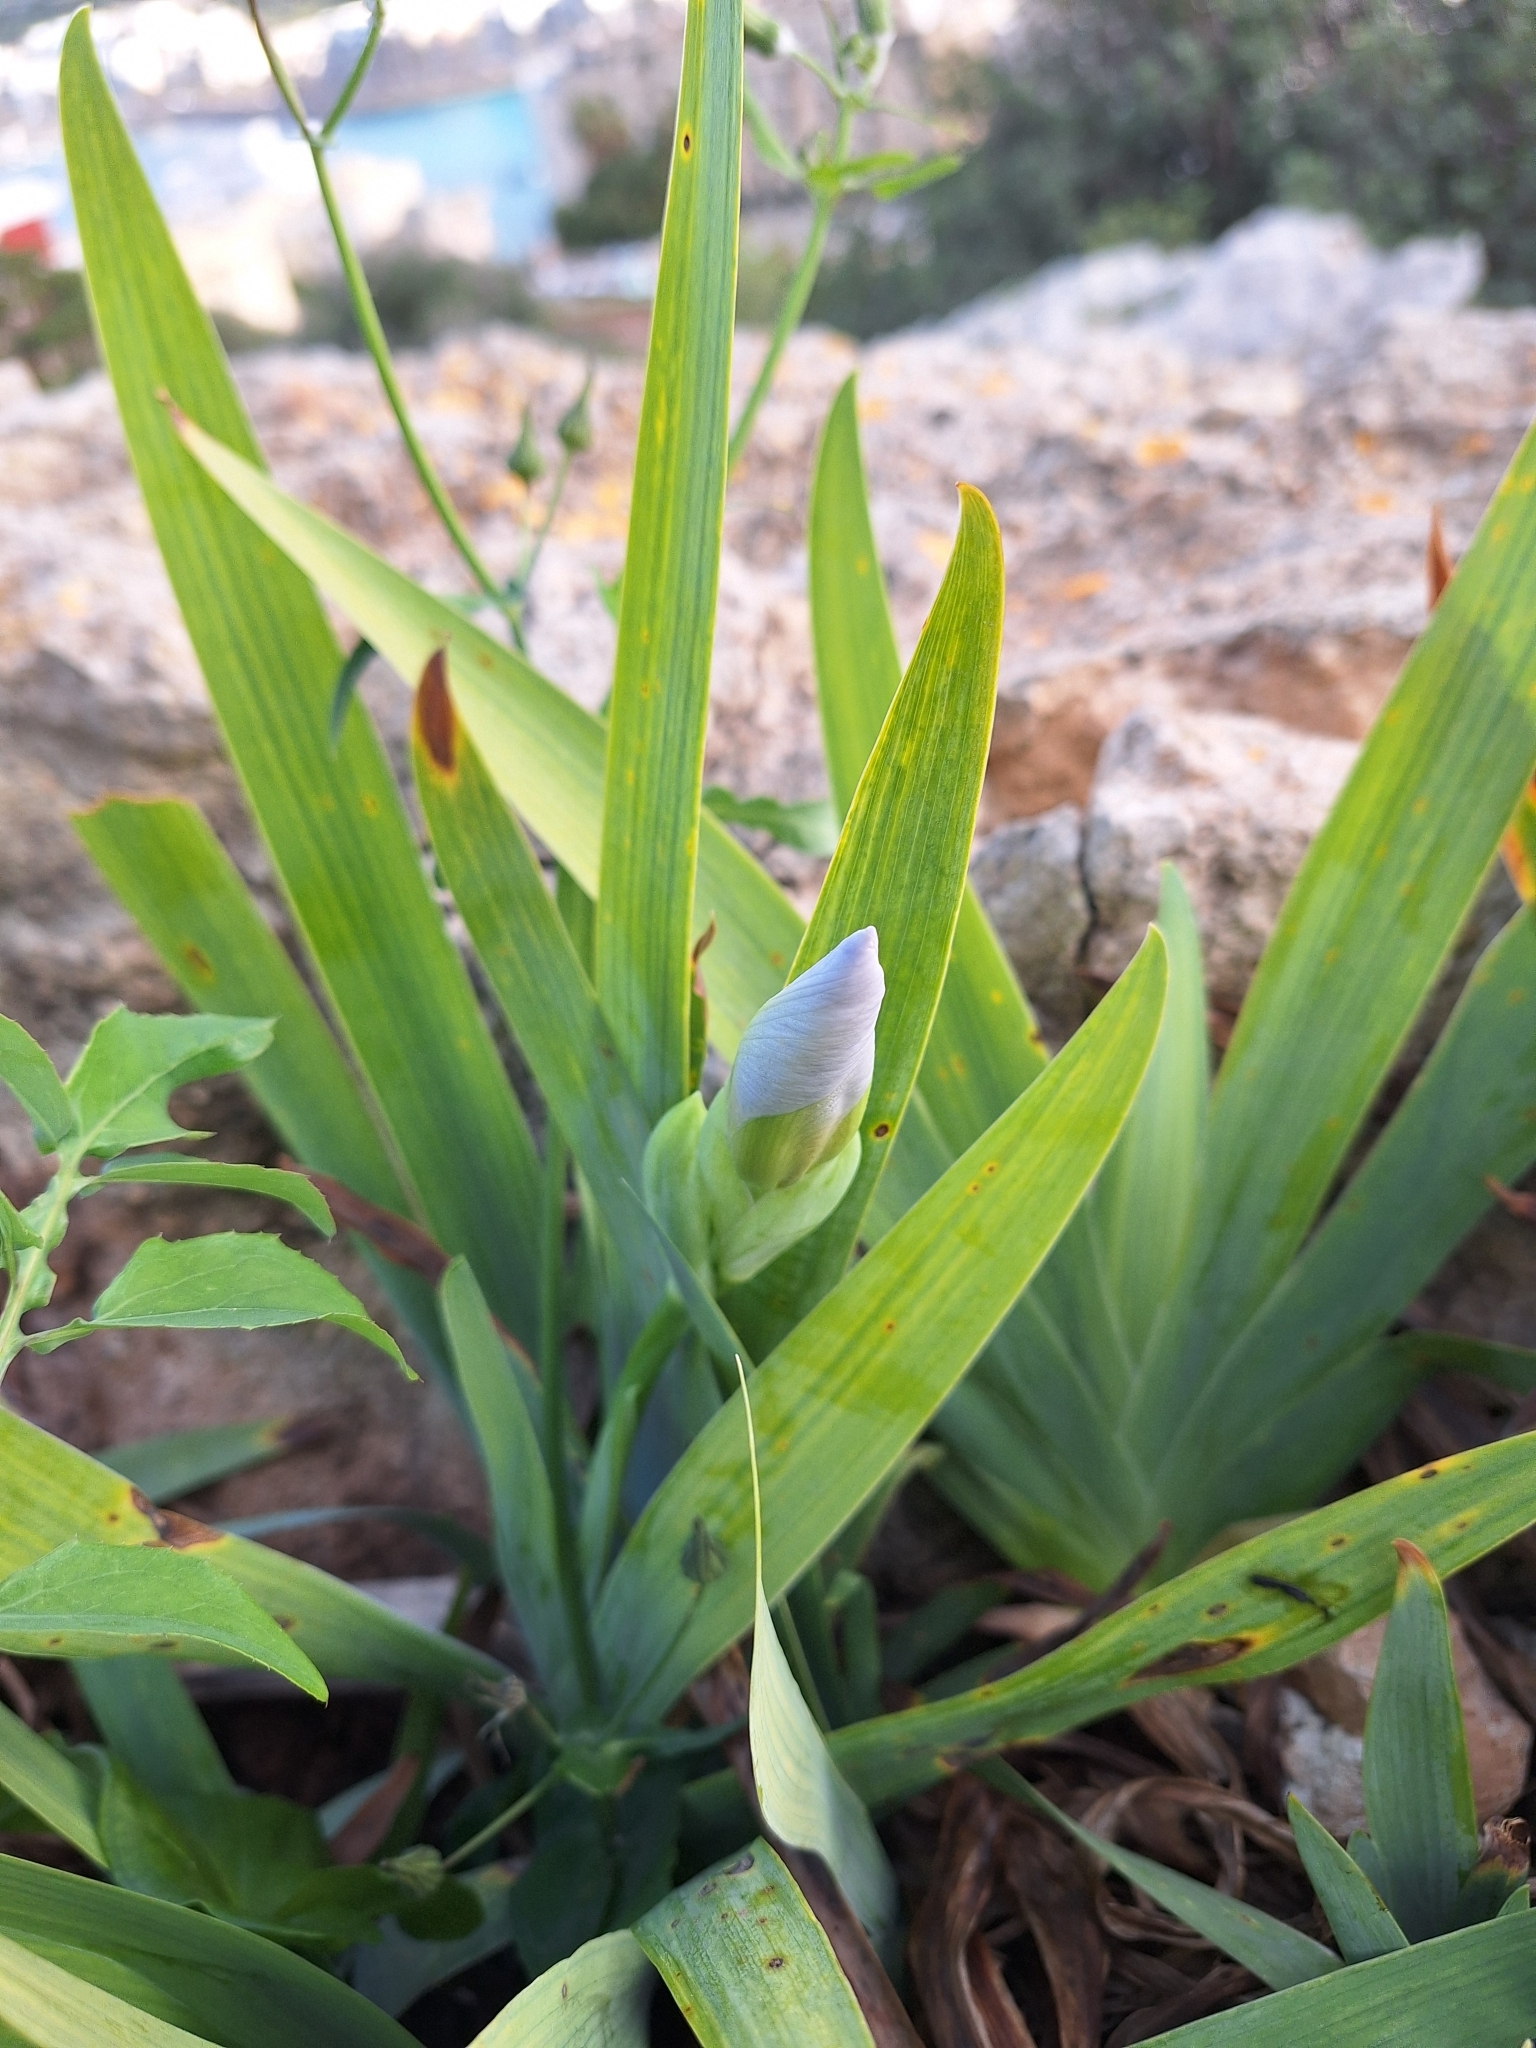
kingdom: Plantae
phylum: Tracheophyta
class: Liliopsida
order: Asparagales
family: Iridaceae
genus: Iris
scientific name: Iris florentina
